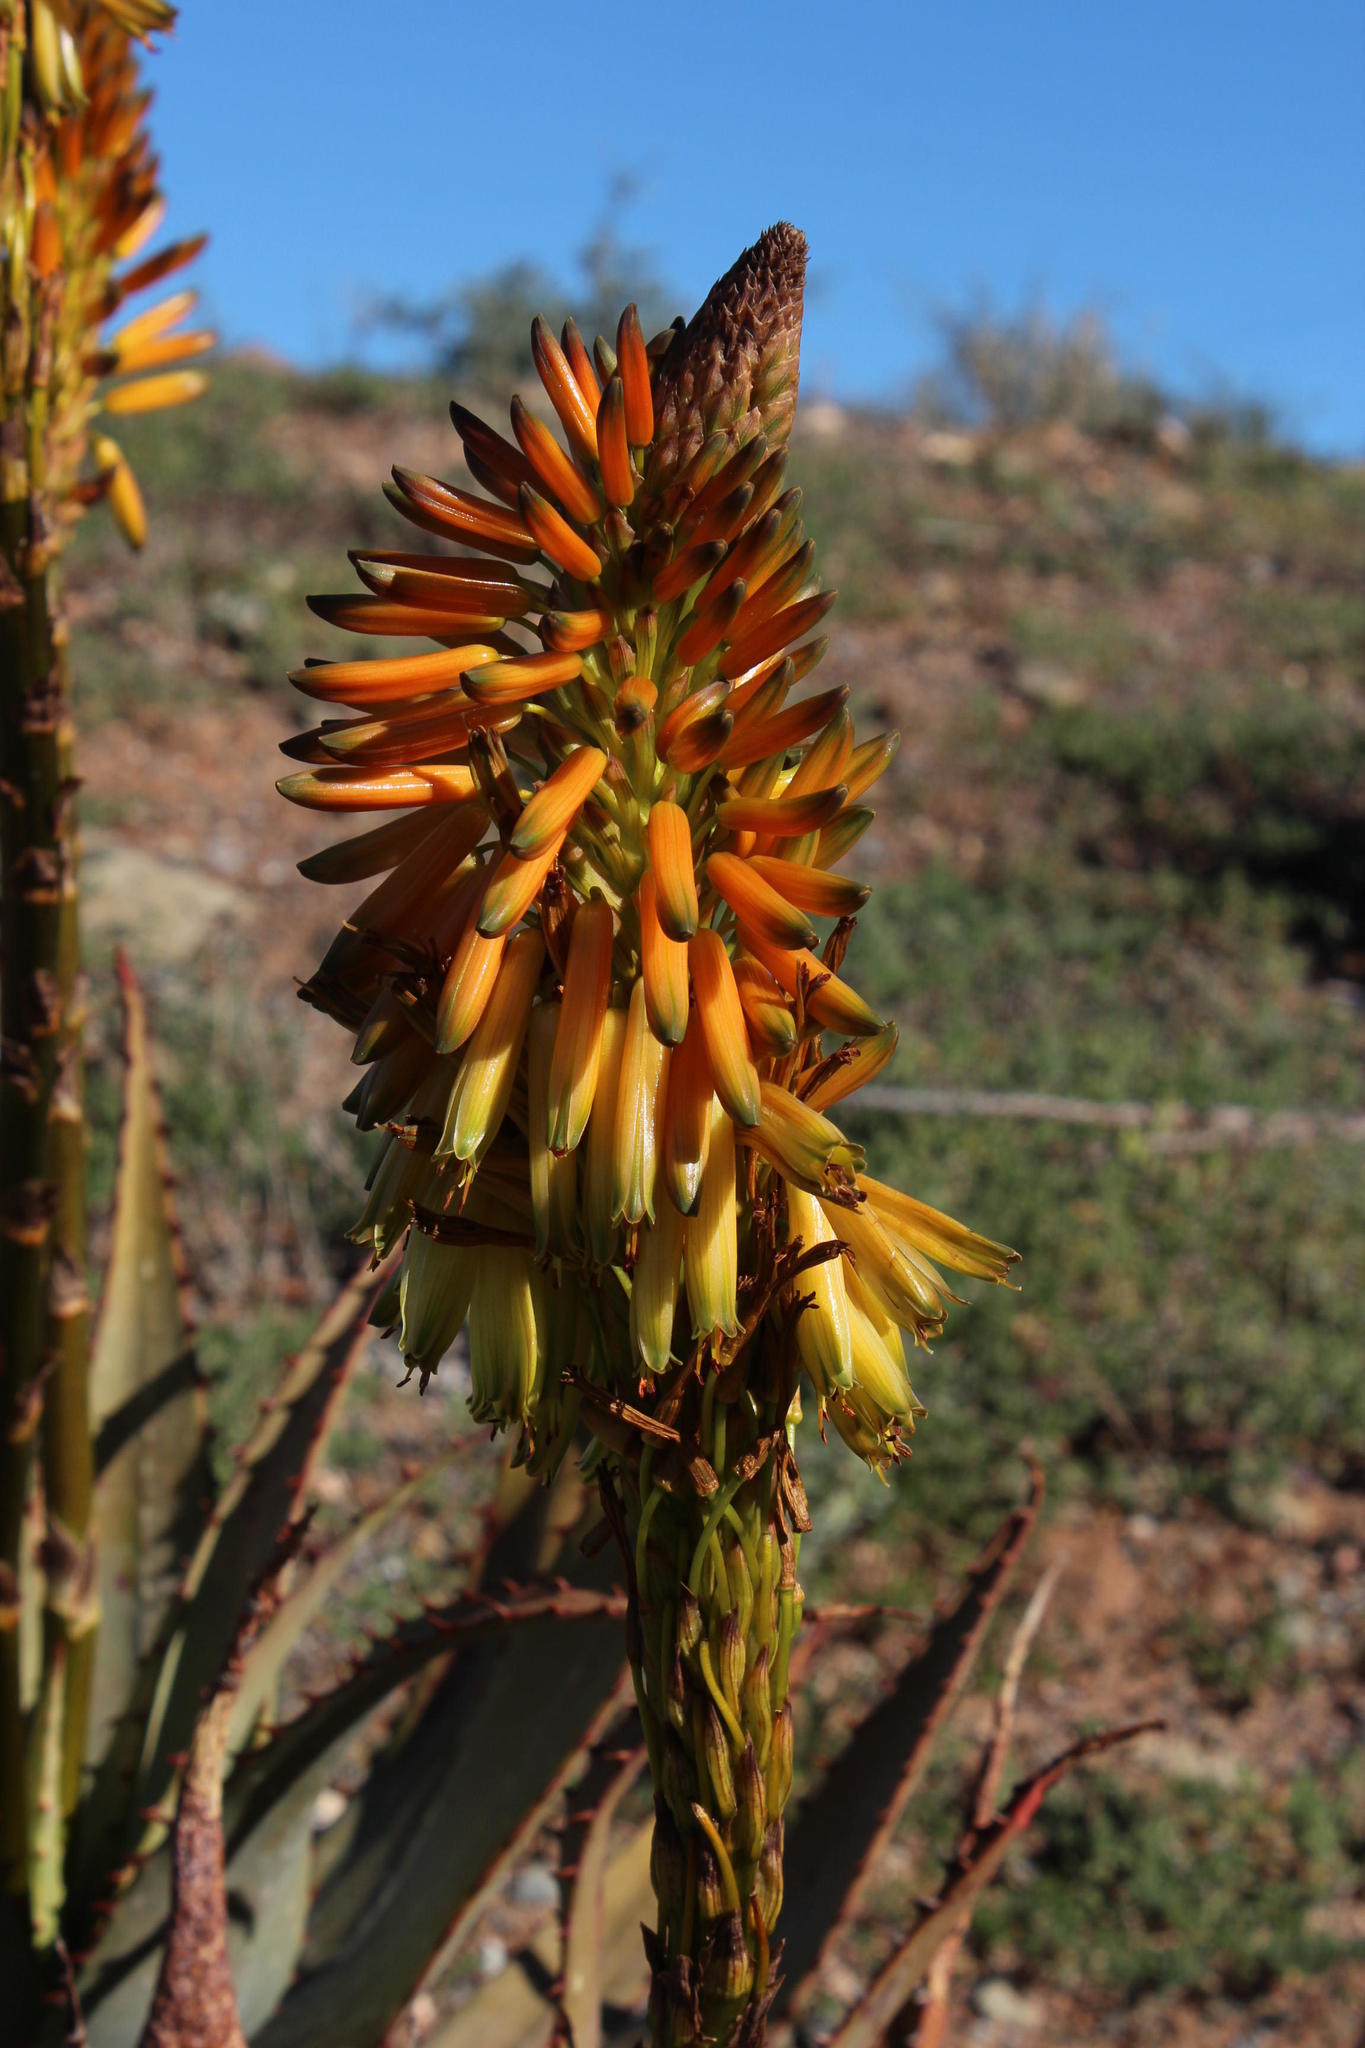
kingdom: Plantae
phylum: Tracheophyta
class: Liliopsida
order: Asparagales
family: Asphodelaceae
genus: Aloe
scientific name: Aloe microstigma
